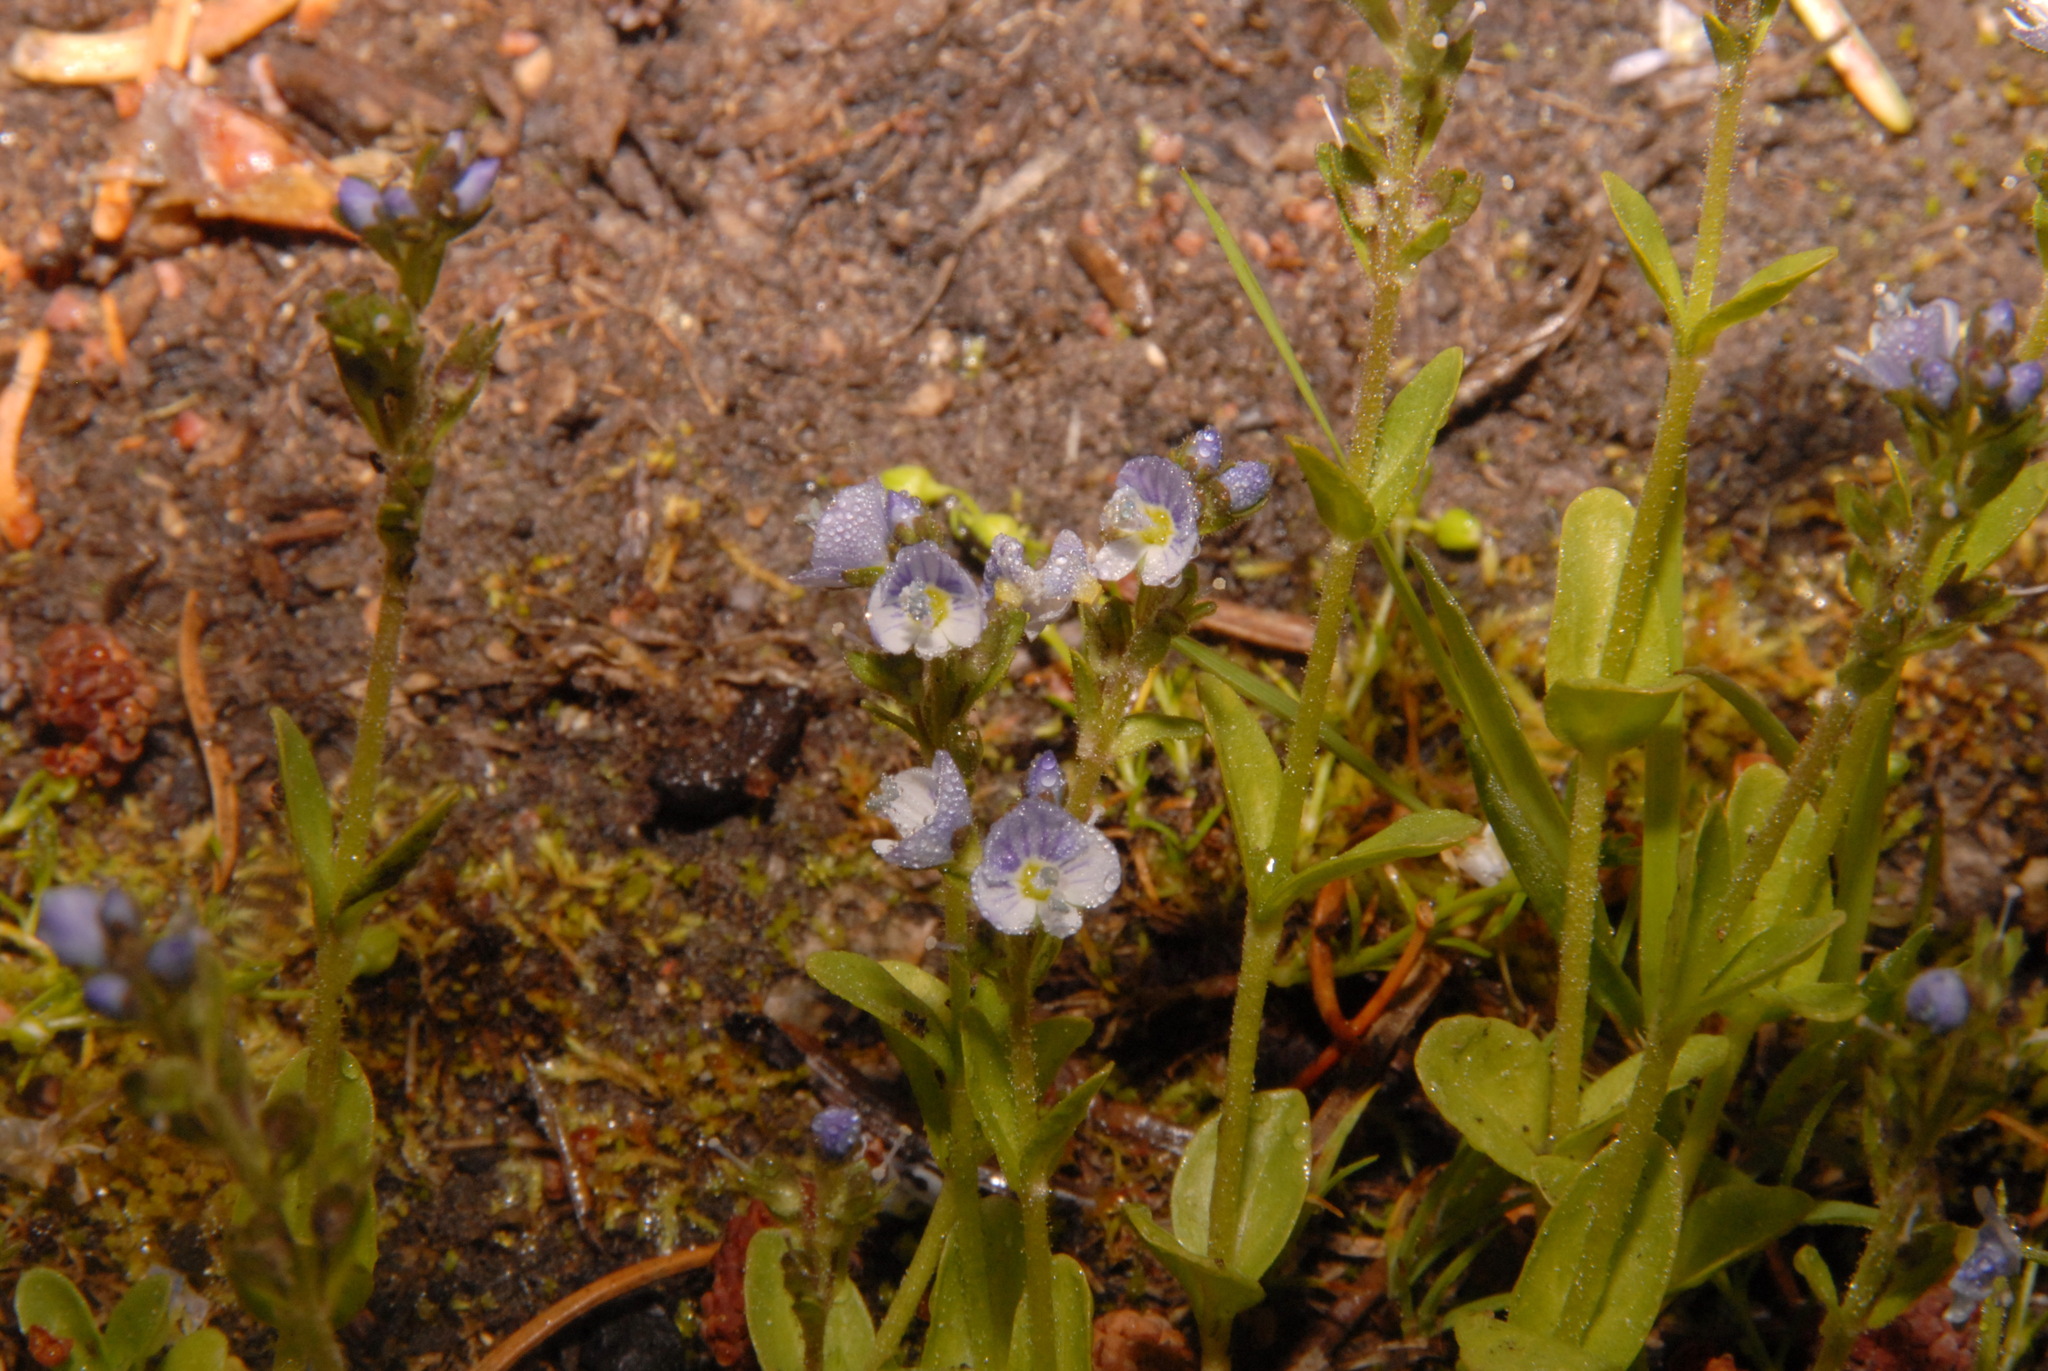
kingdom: Plantae
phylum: Tracheophyta
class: Magnoliopsida
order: Lamiales
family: Plantaginaceae
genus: Veronica
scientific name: Veronica serpyllifolia
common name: Thyme-leaved speedwell
